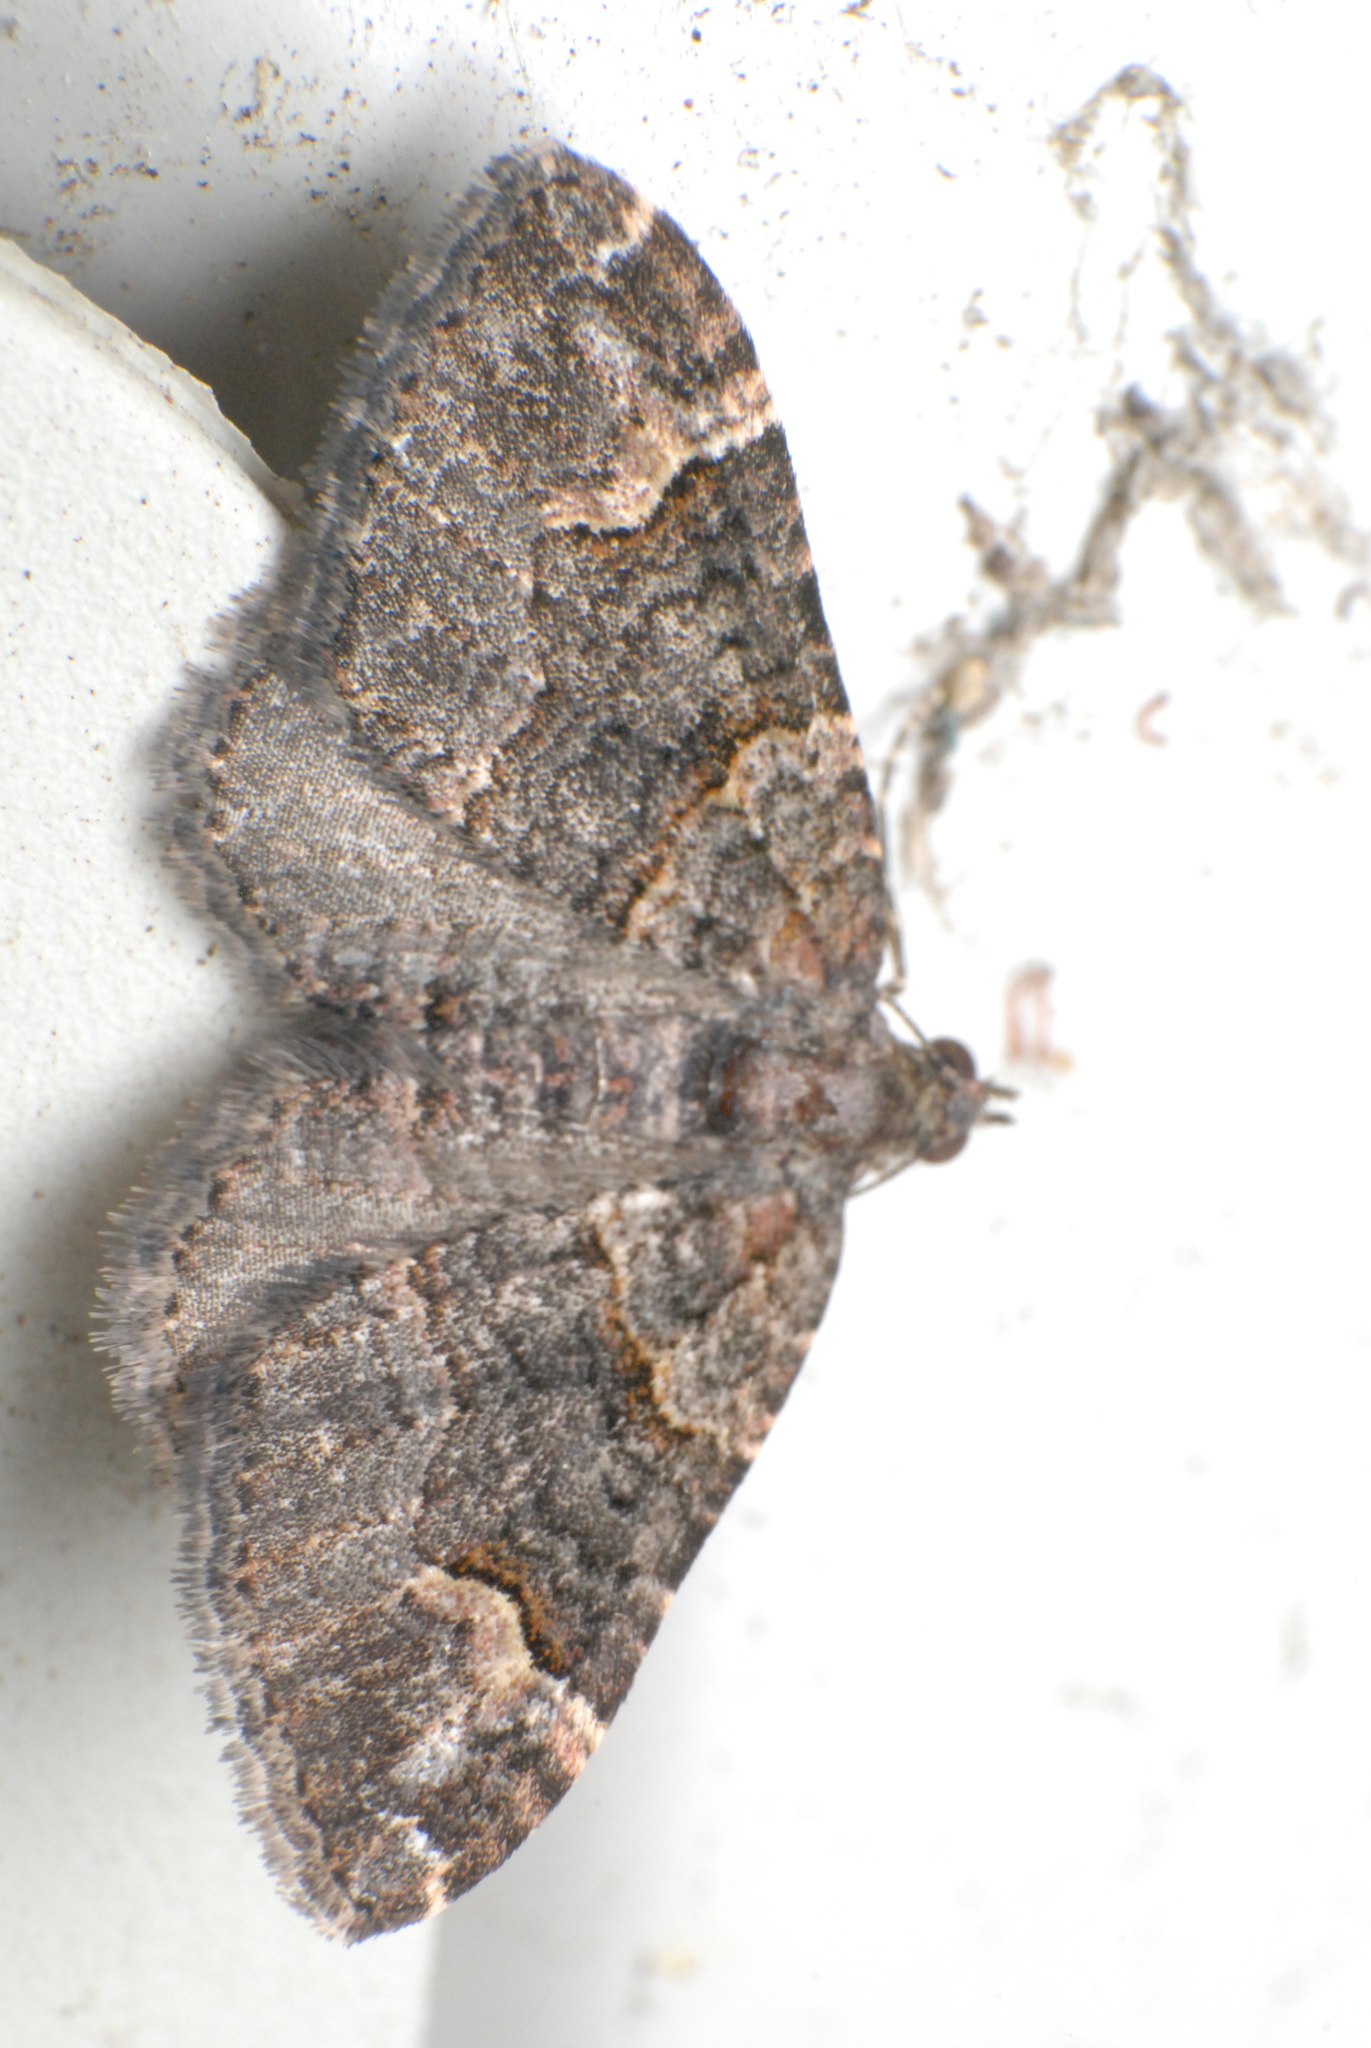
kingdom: Animalia
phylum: Arthropoda
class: Insecta
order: Lepidoptera
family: Geometridae
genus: Epyaxa
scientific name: Epyaxa sodaliata
